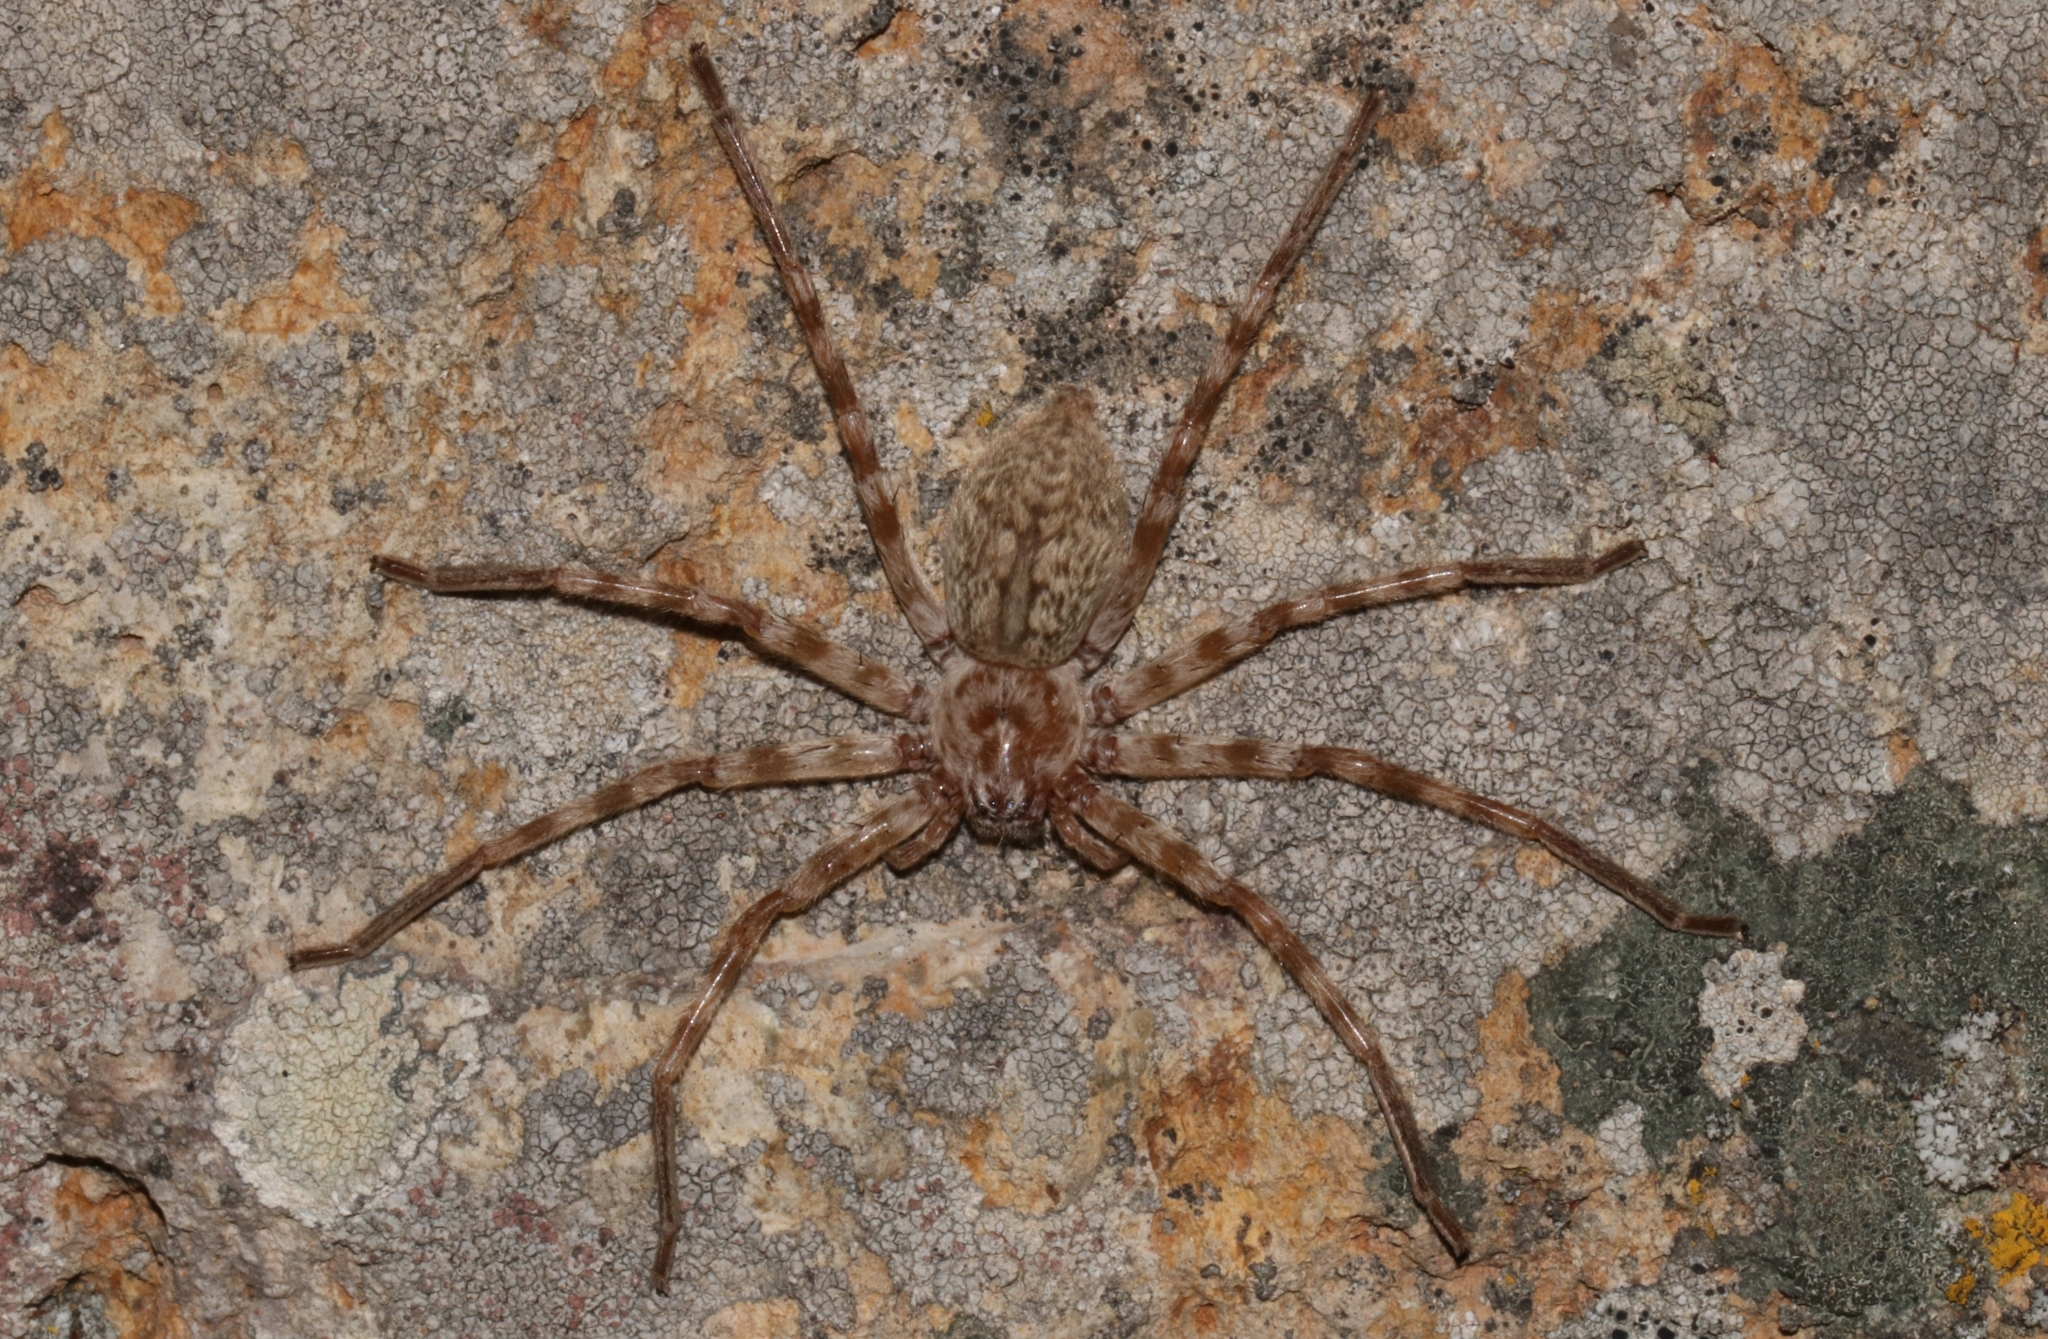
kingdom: Animalia
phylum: Arthropoda
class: Arachnida
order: Araneae
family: Sparassidae
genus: Eusparassus
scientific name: Eusparassus walckenaeri
